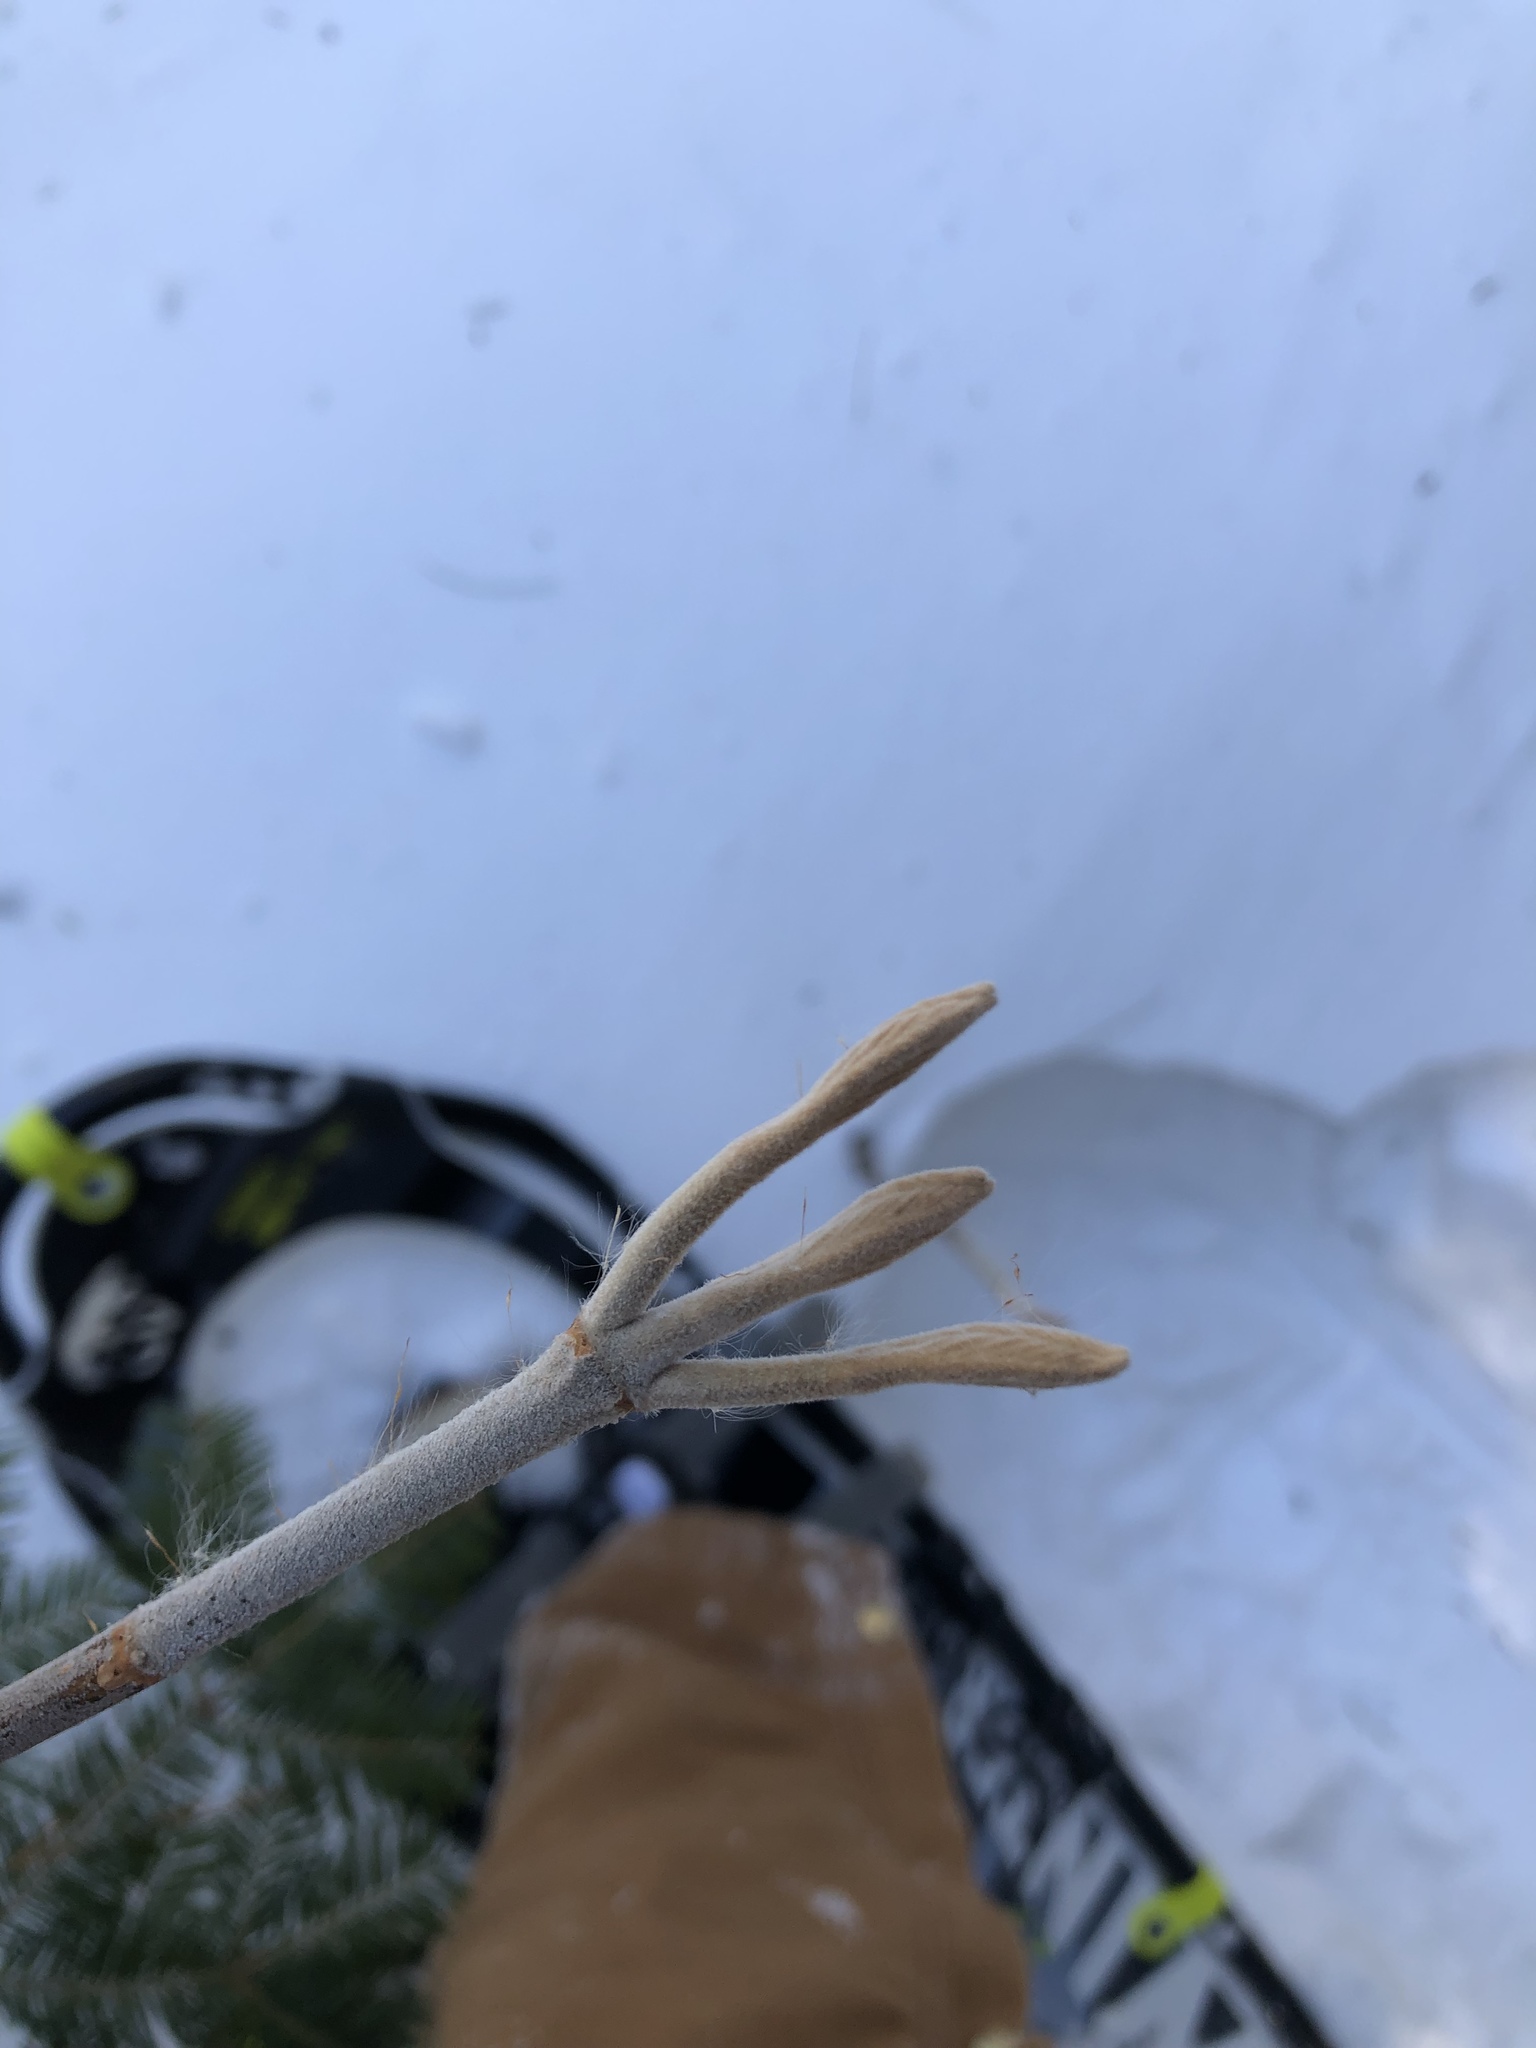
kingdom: Plantae
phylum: Tracheophyta
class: Magnoliopsida
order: Dipsacales
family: Viburnaceae
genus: Viburnum
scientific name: Viburnum lantanoides
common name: Hobblebush
